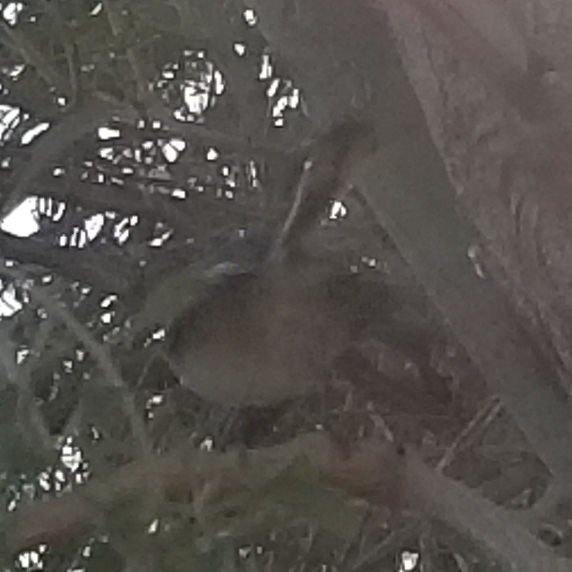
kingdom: Animalia
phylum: Chordata
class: Aves
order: Passeriformes
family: Polioptilidae
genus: Polioptila
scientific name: Polioptila melanura
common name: Black-tailed gnatcatcher
